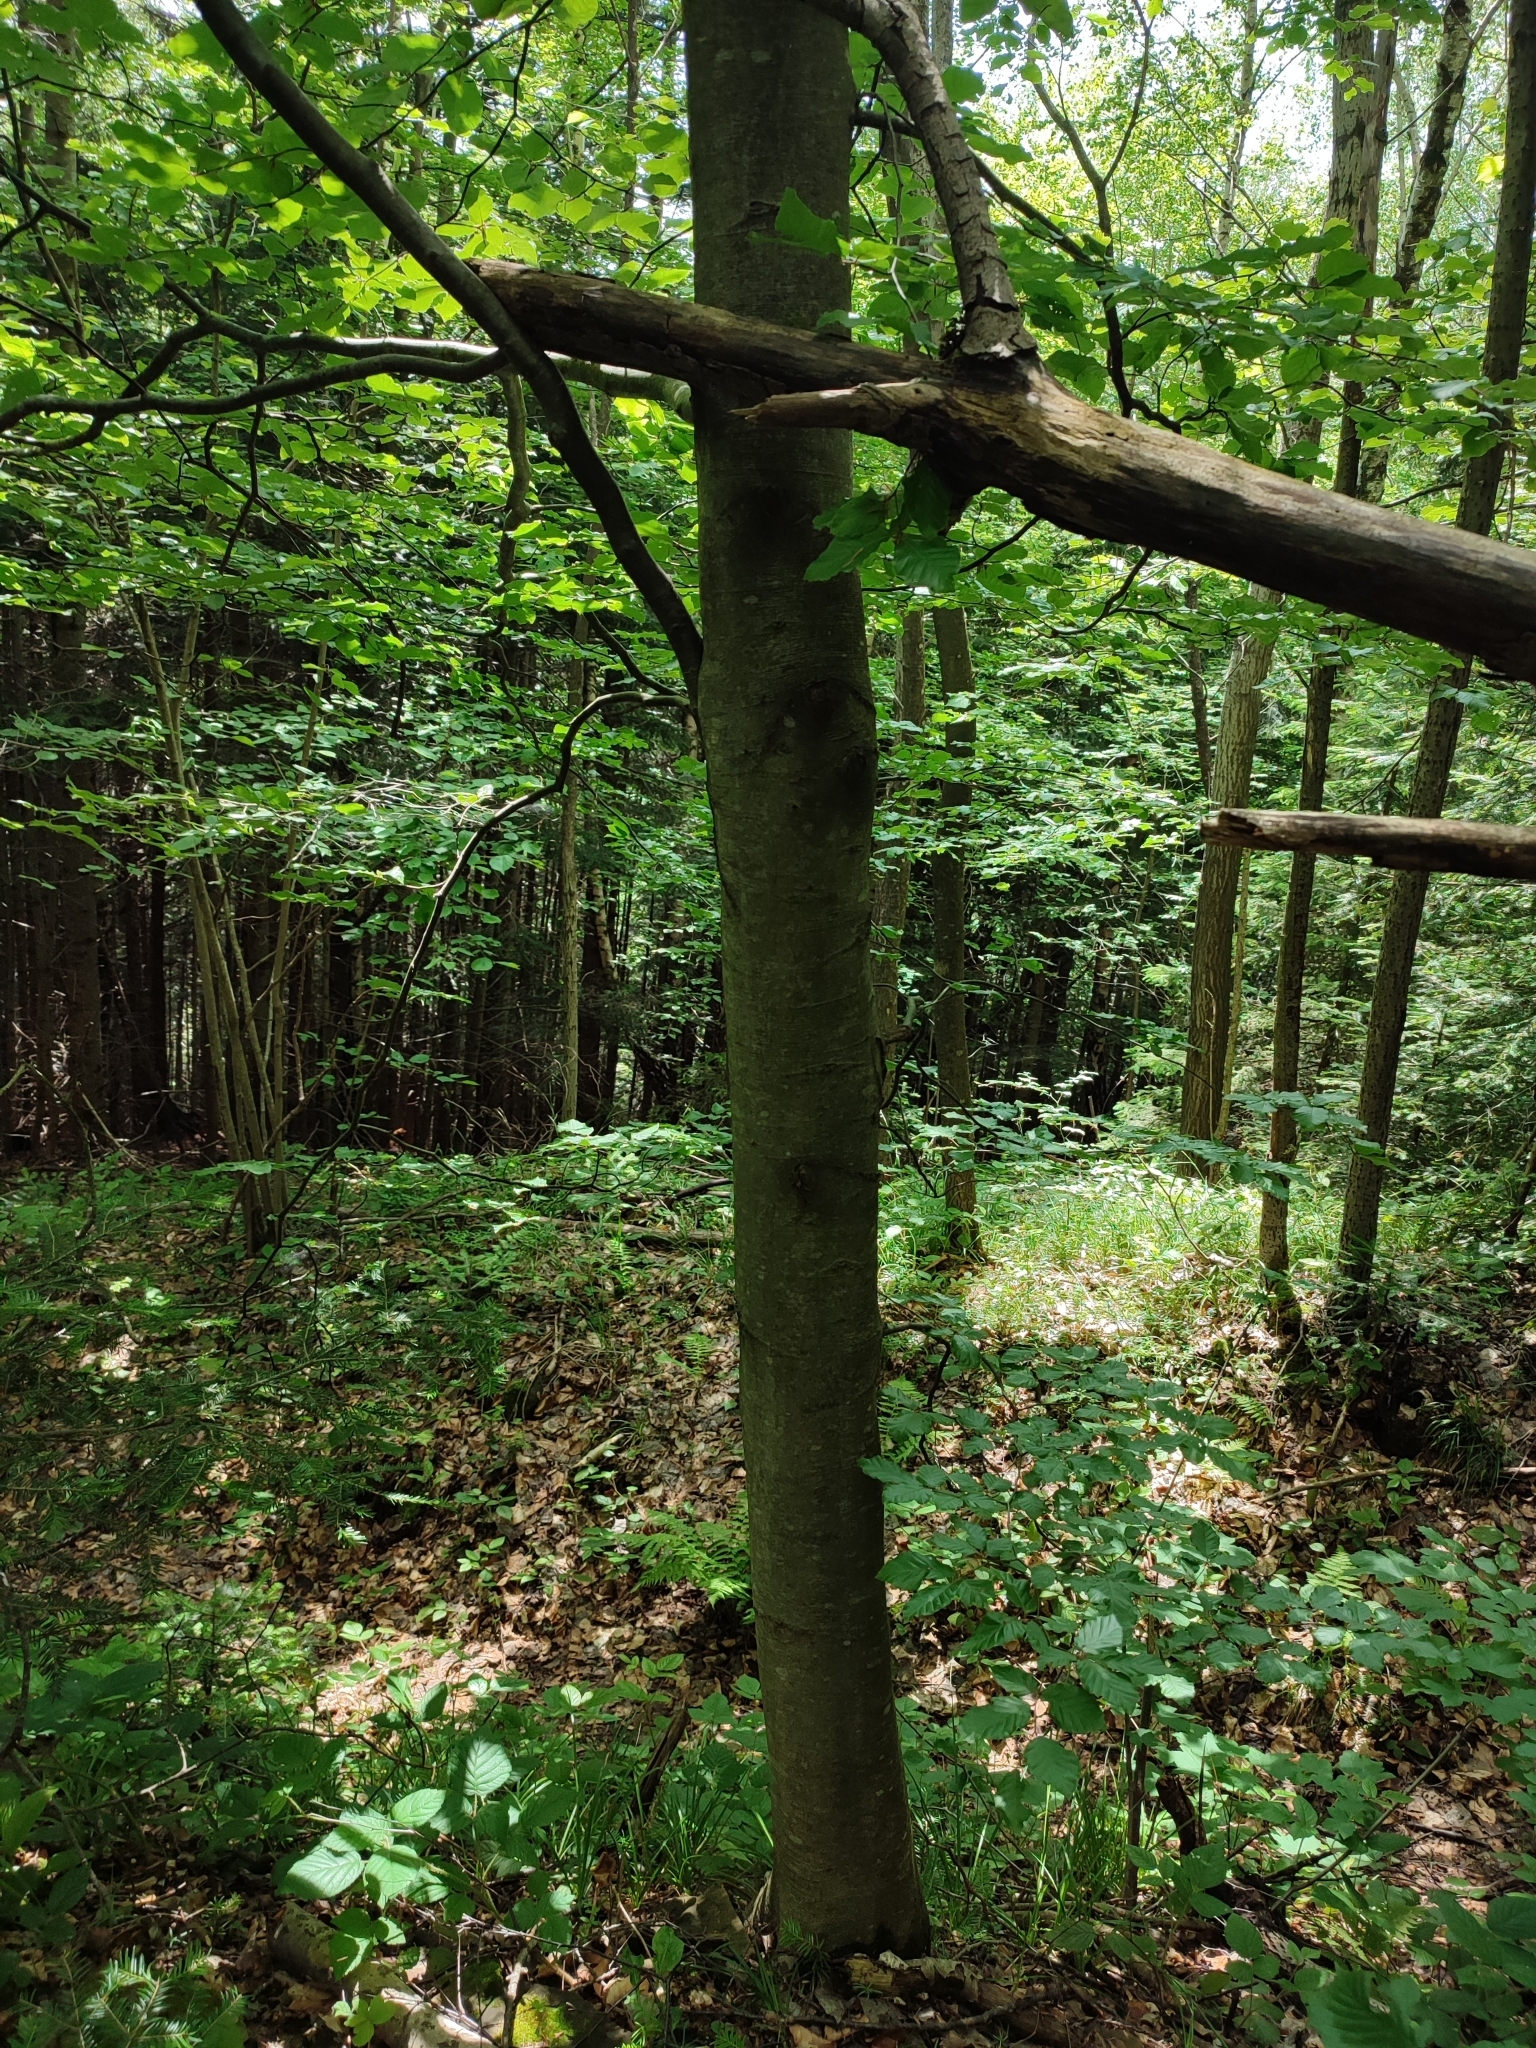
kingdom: Plantae
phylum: Tracheophyta
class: Magnoliopsida
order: Fagales
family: Fagaceae
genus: Fagus
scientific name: Fagus sylvatica
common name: Beech
